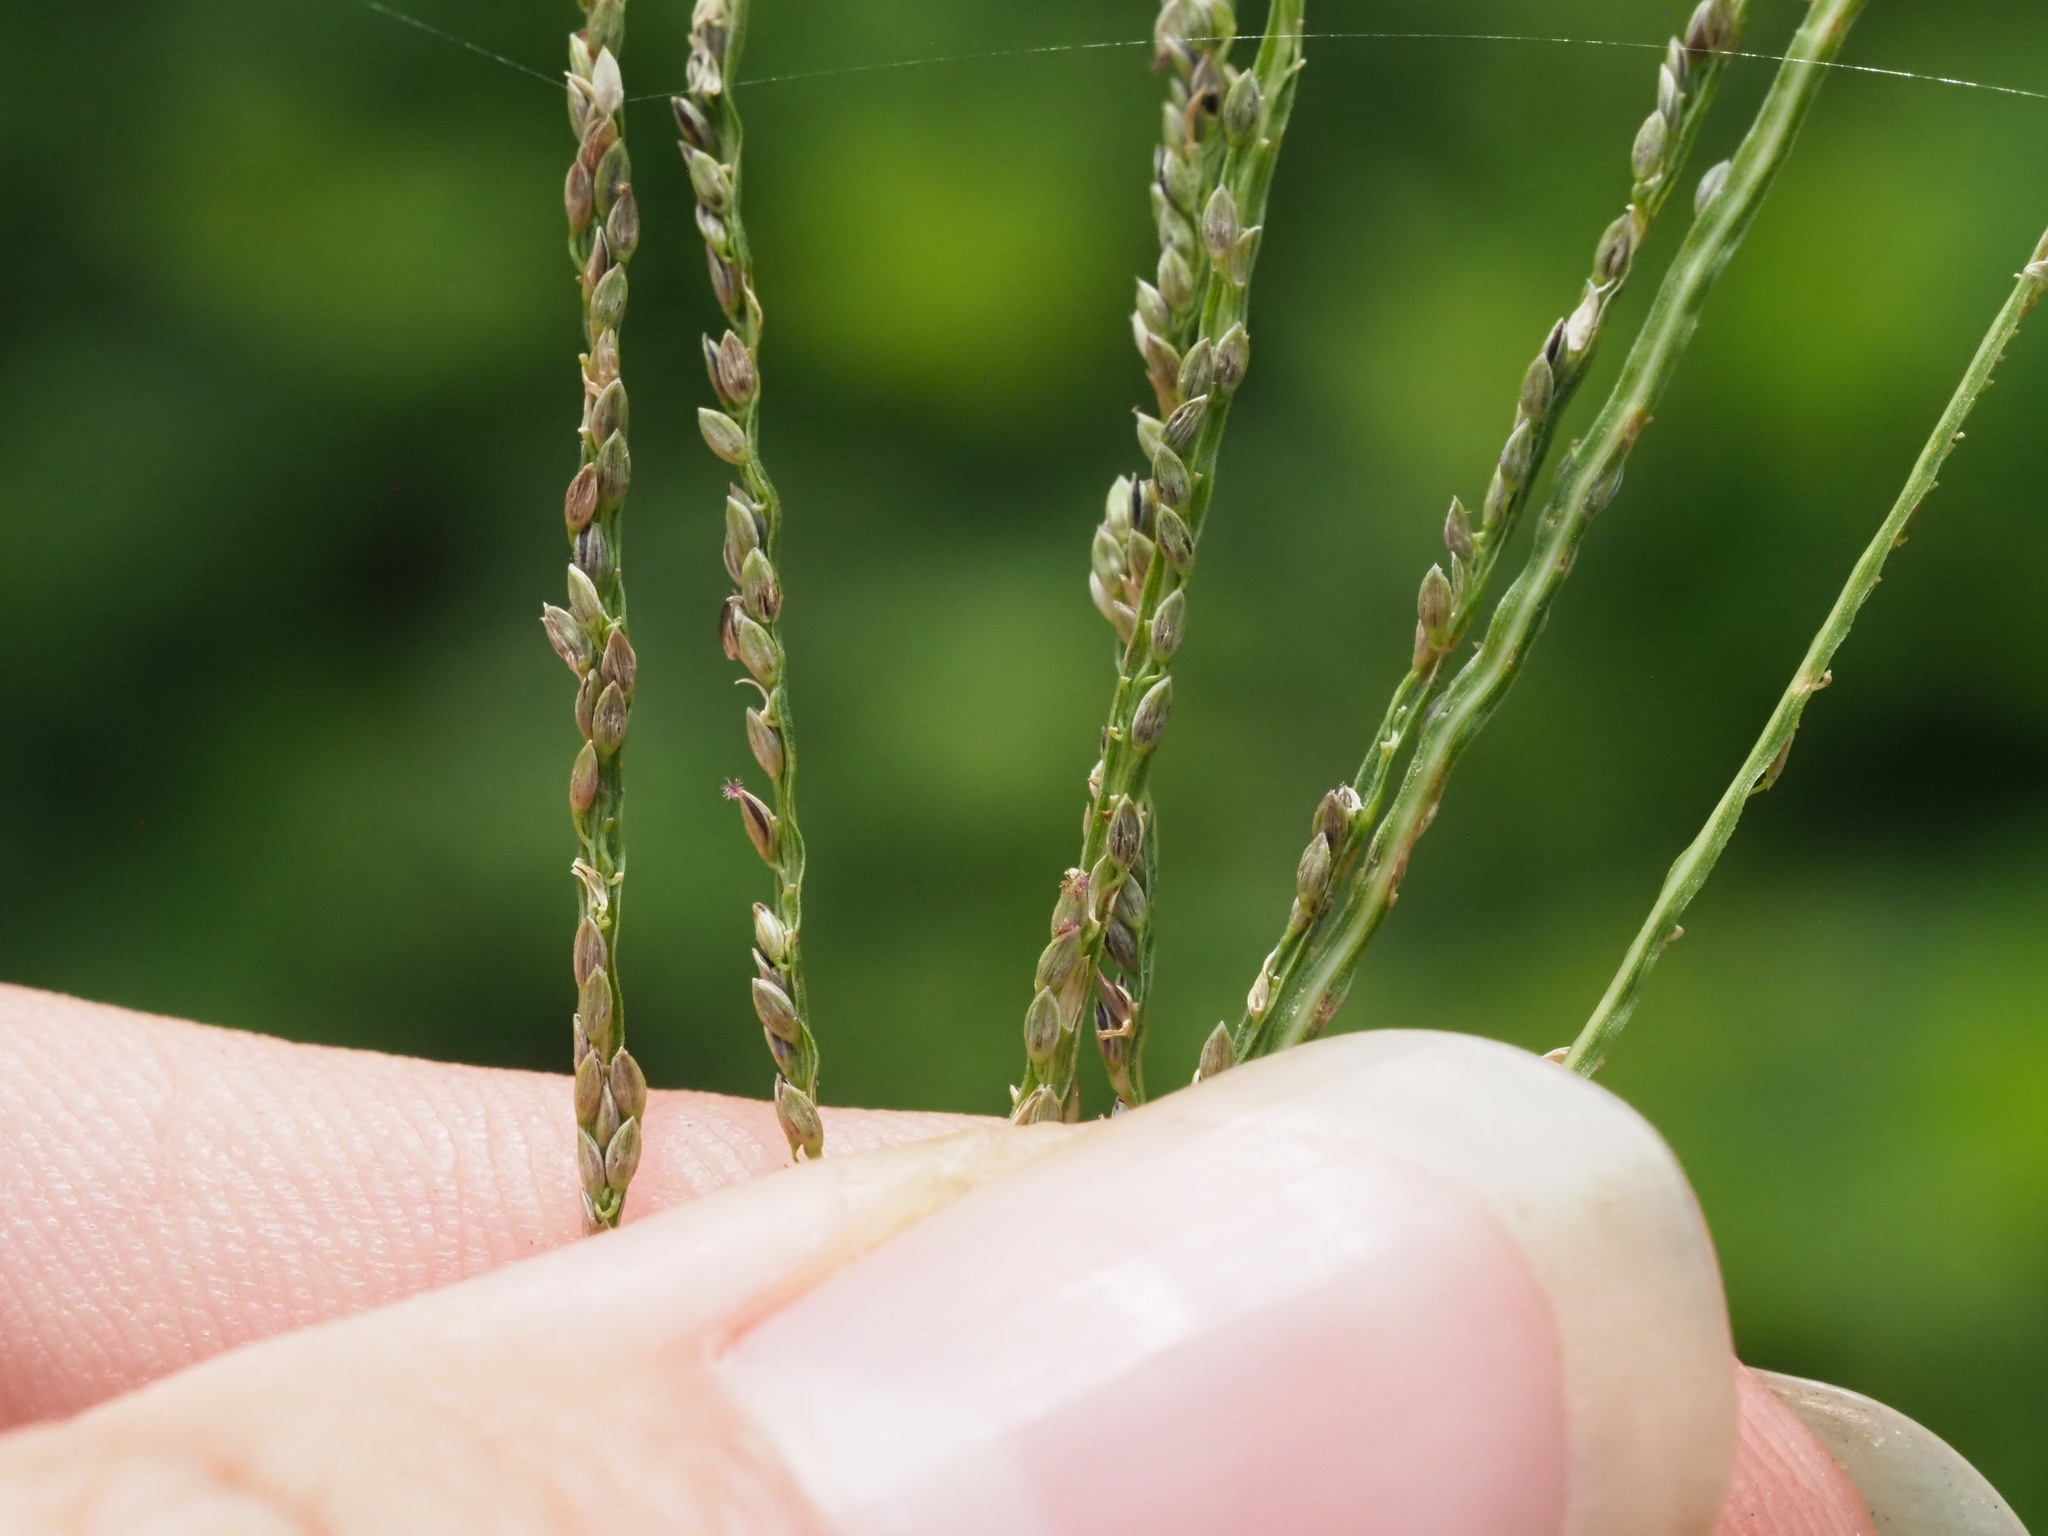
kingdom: Plantae
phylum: Tracheophyta
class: Liliopsida
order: Poales
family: Poaceae
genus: Digitaria
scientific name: Digitaria violascens
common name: Violet crabgrass
